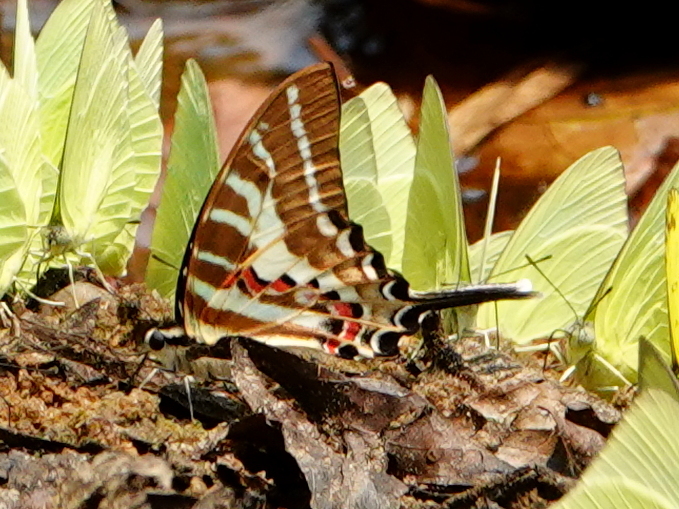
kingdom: Animalia
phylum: Arthropoda
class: Insecta
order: Lepidoptera
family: Papilionidae
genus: Graphium
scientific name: Graphium aristeus
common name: Chain swordtail
